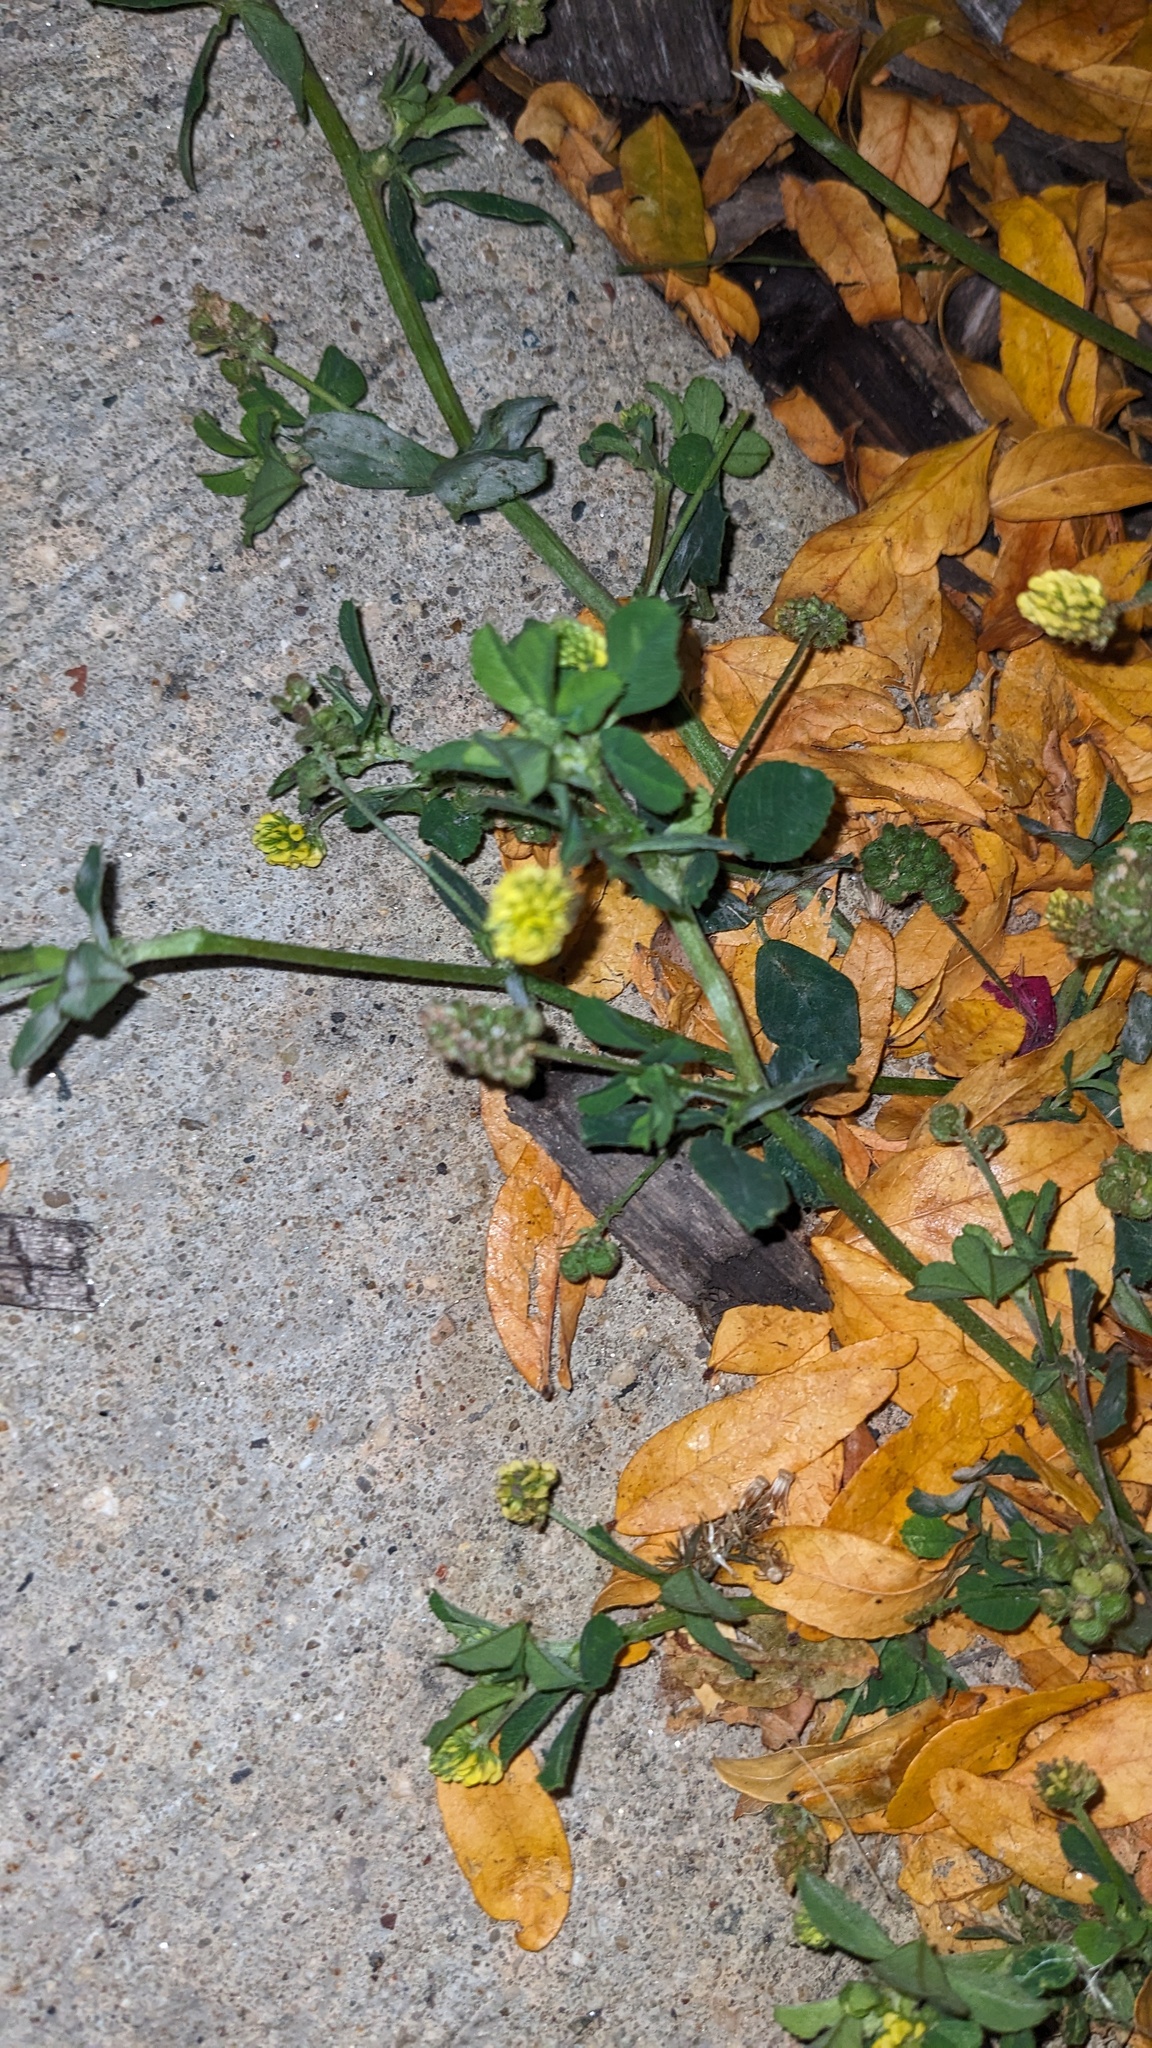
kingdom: Plantae
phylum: Tracheophyta
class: Magnoliopsida
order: Fabales
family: Fabaceae
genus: Medicago
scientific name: Medicago lupulina
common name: Black medick
